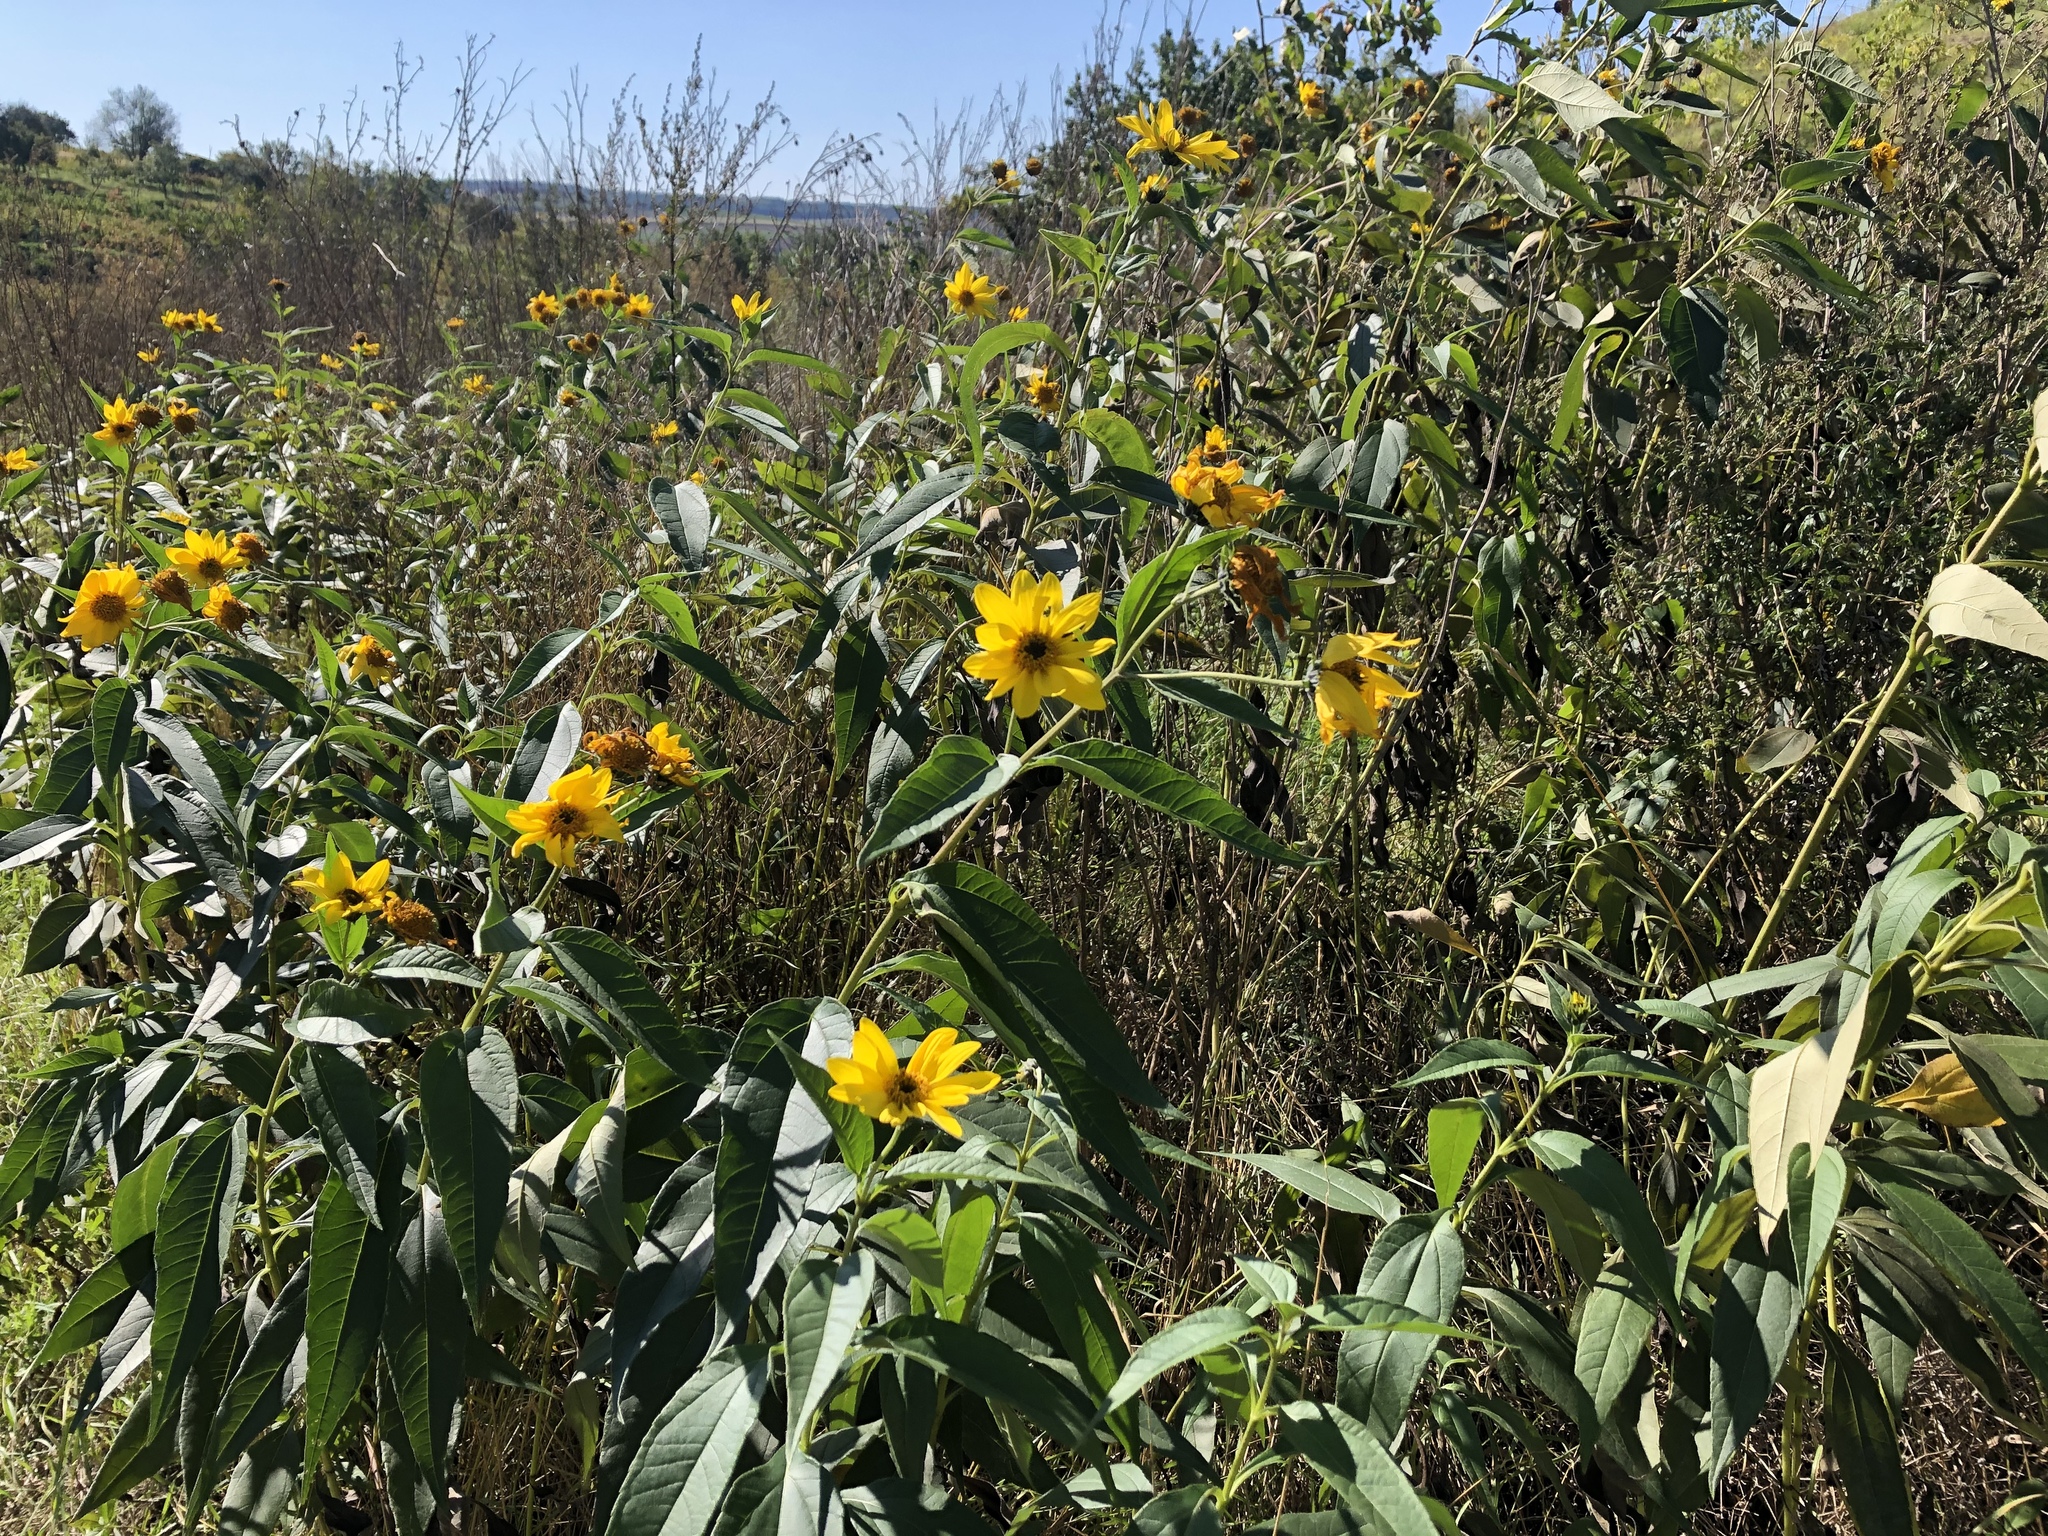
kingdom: Plantae
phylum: Tracheophyta
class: Magnoliopsida
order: Asterales
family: Asteraceae
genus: Helianthus
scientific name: Helianthus tuberosus
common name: Jerusalem artichoke
